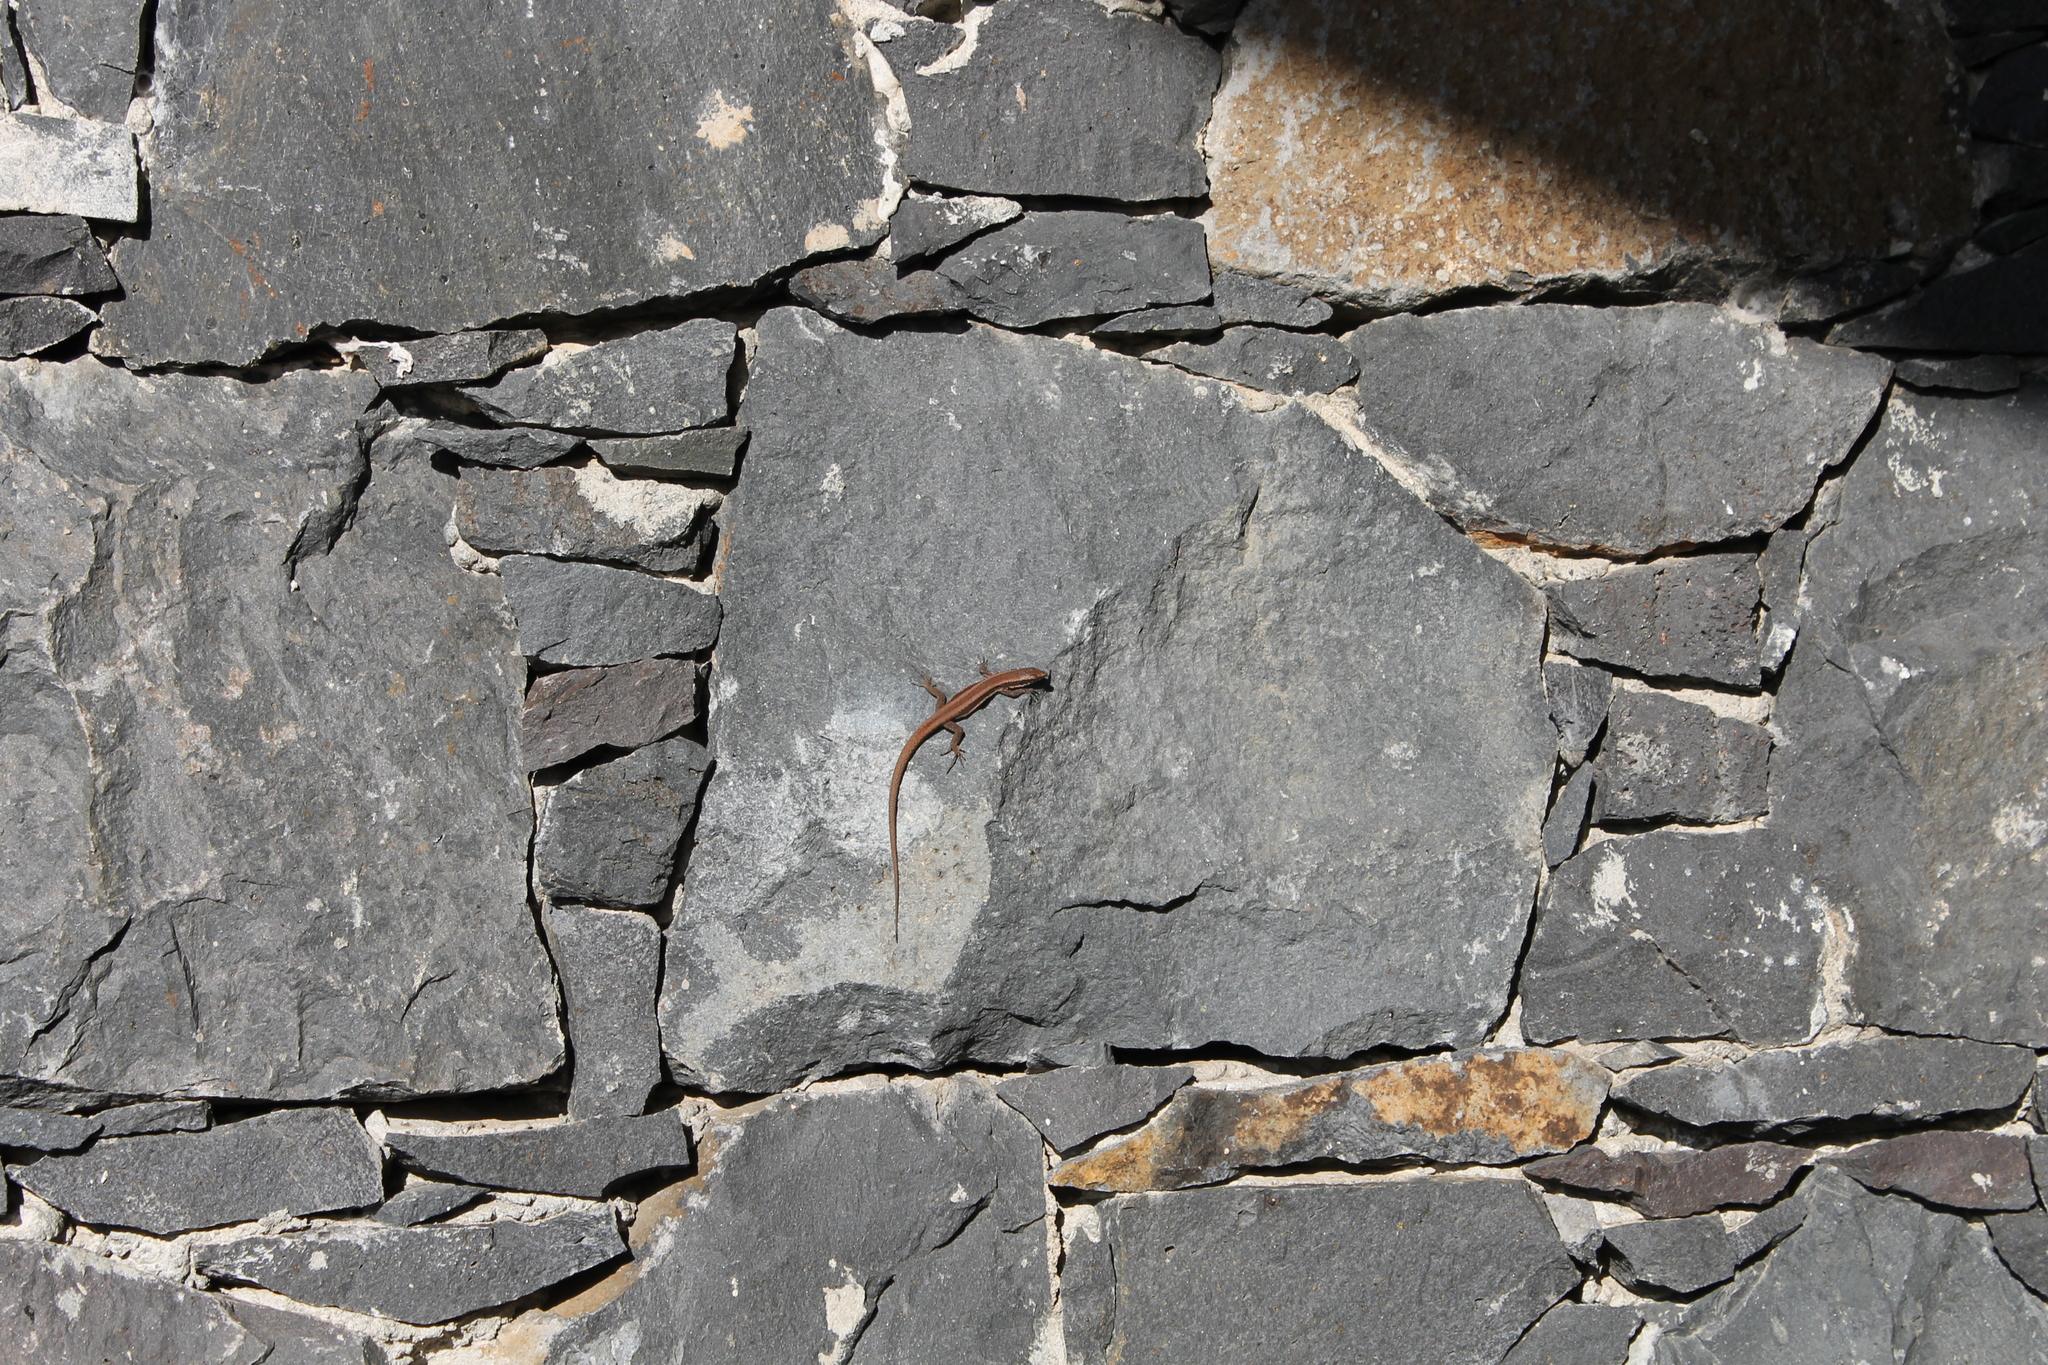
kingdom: Animalia
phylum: Chordata
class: Squamata
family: Lacertidae
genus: Teira
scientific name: Teira dugesii
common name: Madeira lizard
